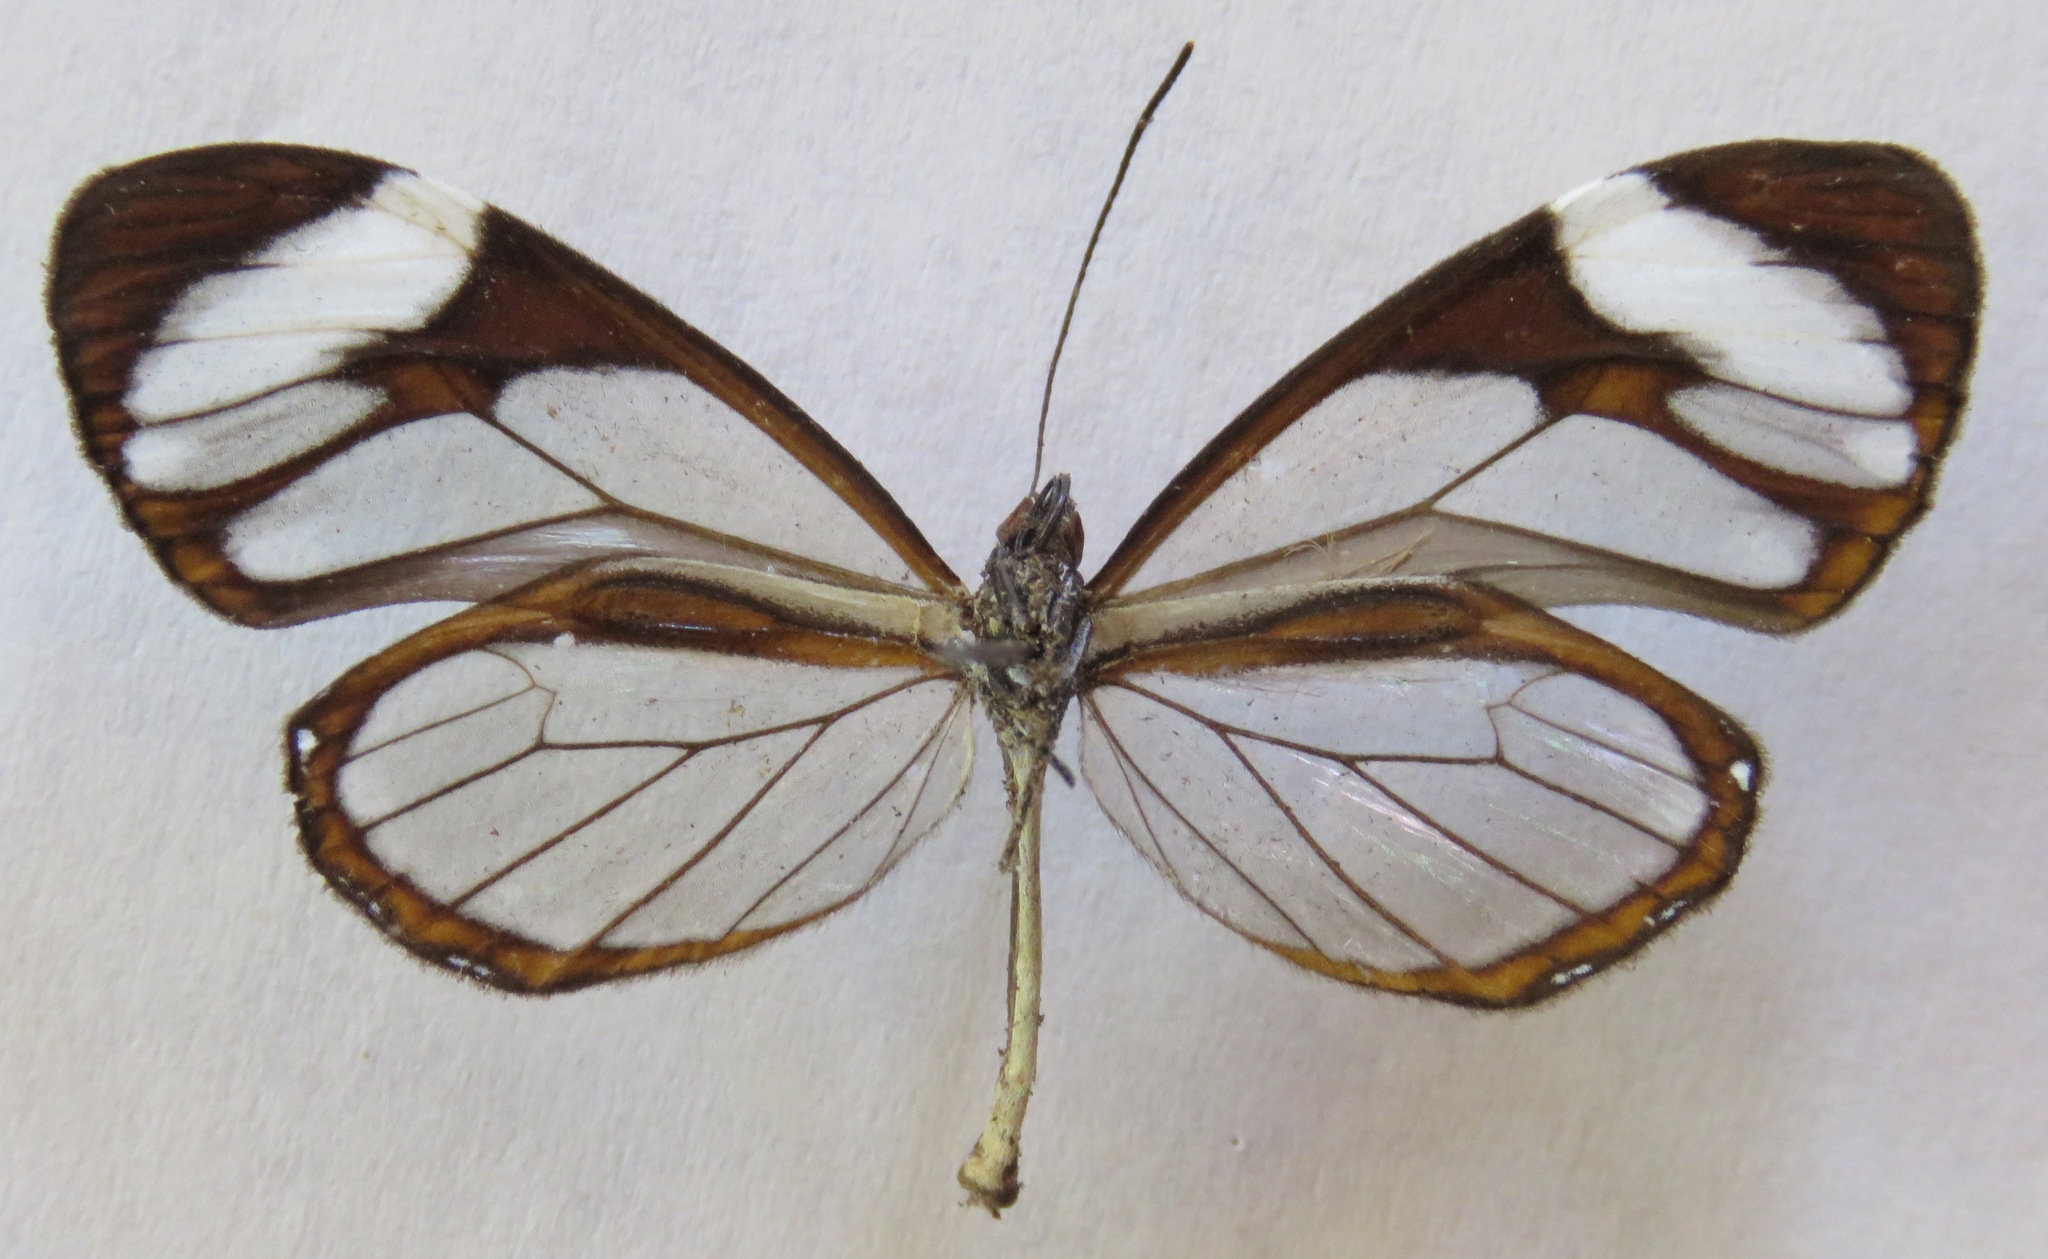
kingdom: Animalia
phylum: Arthropoda
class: Insecta
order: Lepidoptera
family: Nymphalidae
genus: Ithomia
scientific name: Ithomia patilla
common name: Patilla clearwing
